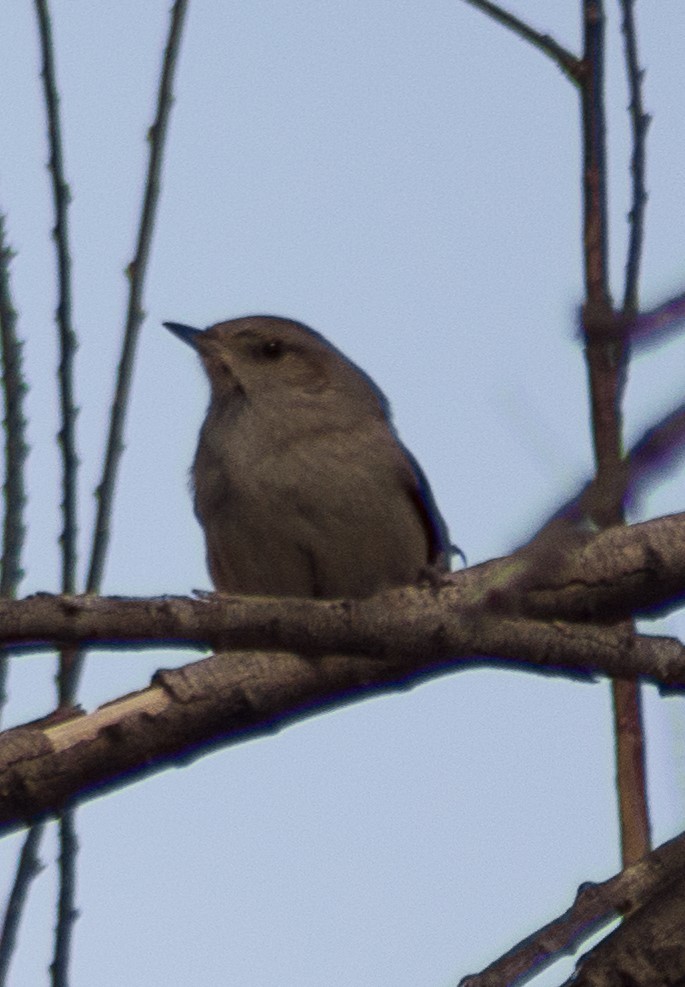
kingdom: Animalia
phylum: Chordata
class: Aves
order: Passeriformes
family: Furnariidae
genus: Asthenes
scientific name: Asthenes baeri
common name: Short-billed canastero
